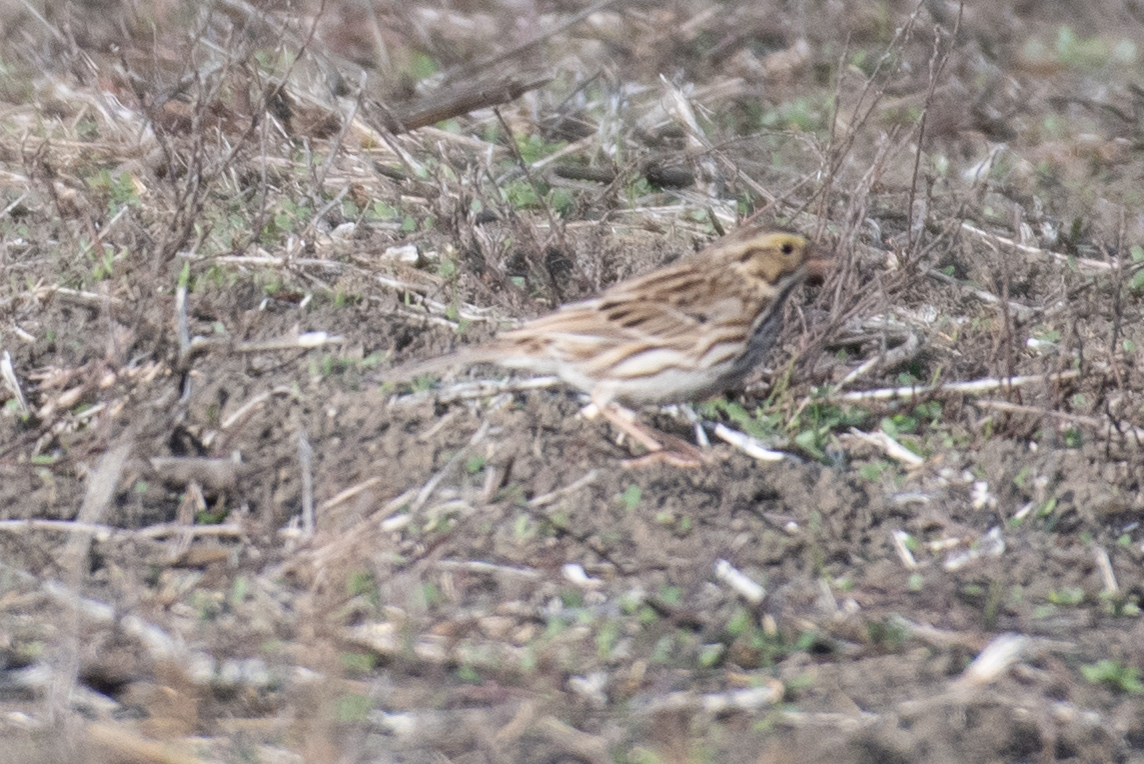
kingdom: Animalia
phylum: Chordata
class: Aves
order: Passeriformes
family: Passerellidae
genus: Passerculus
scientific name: Passerculus sandwichensis
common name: Savannah sparrow
